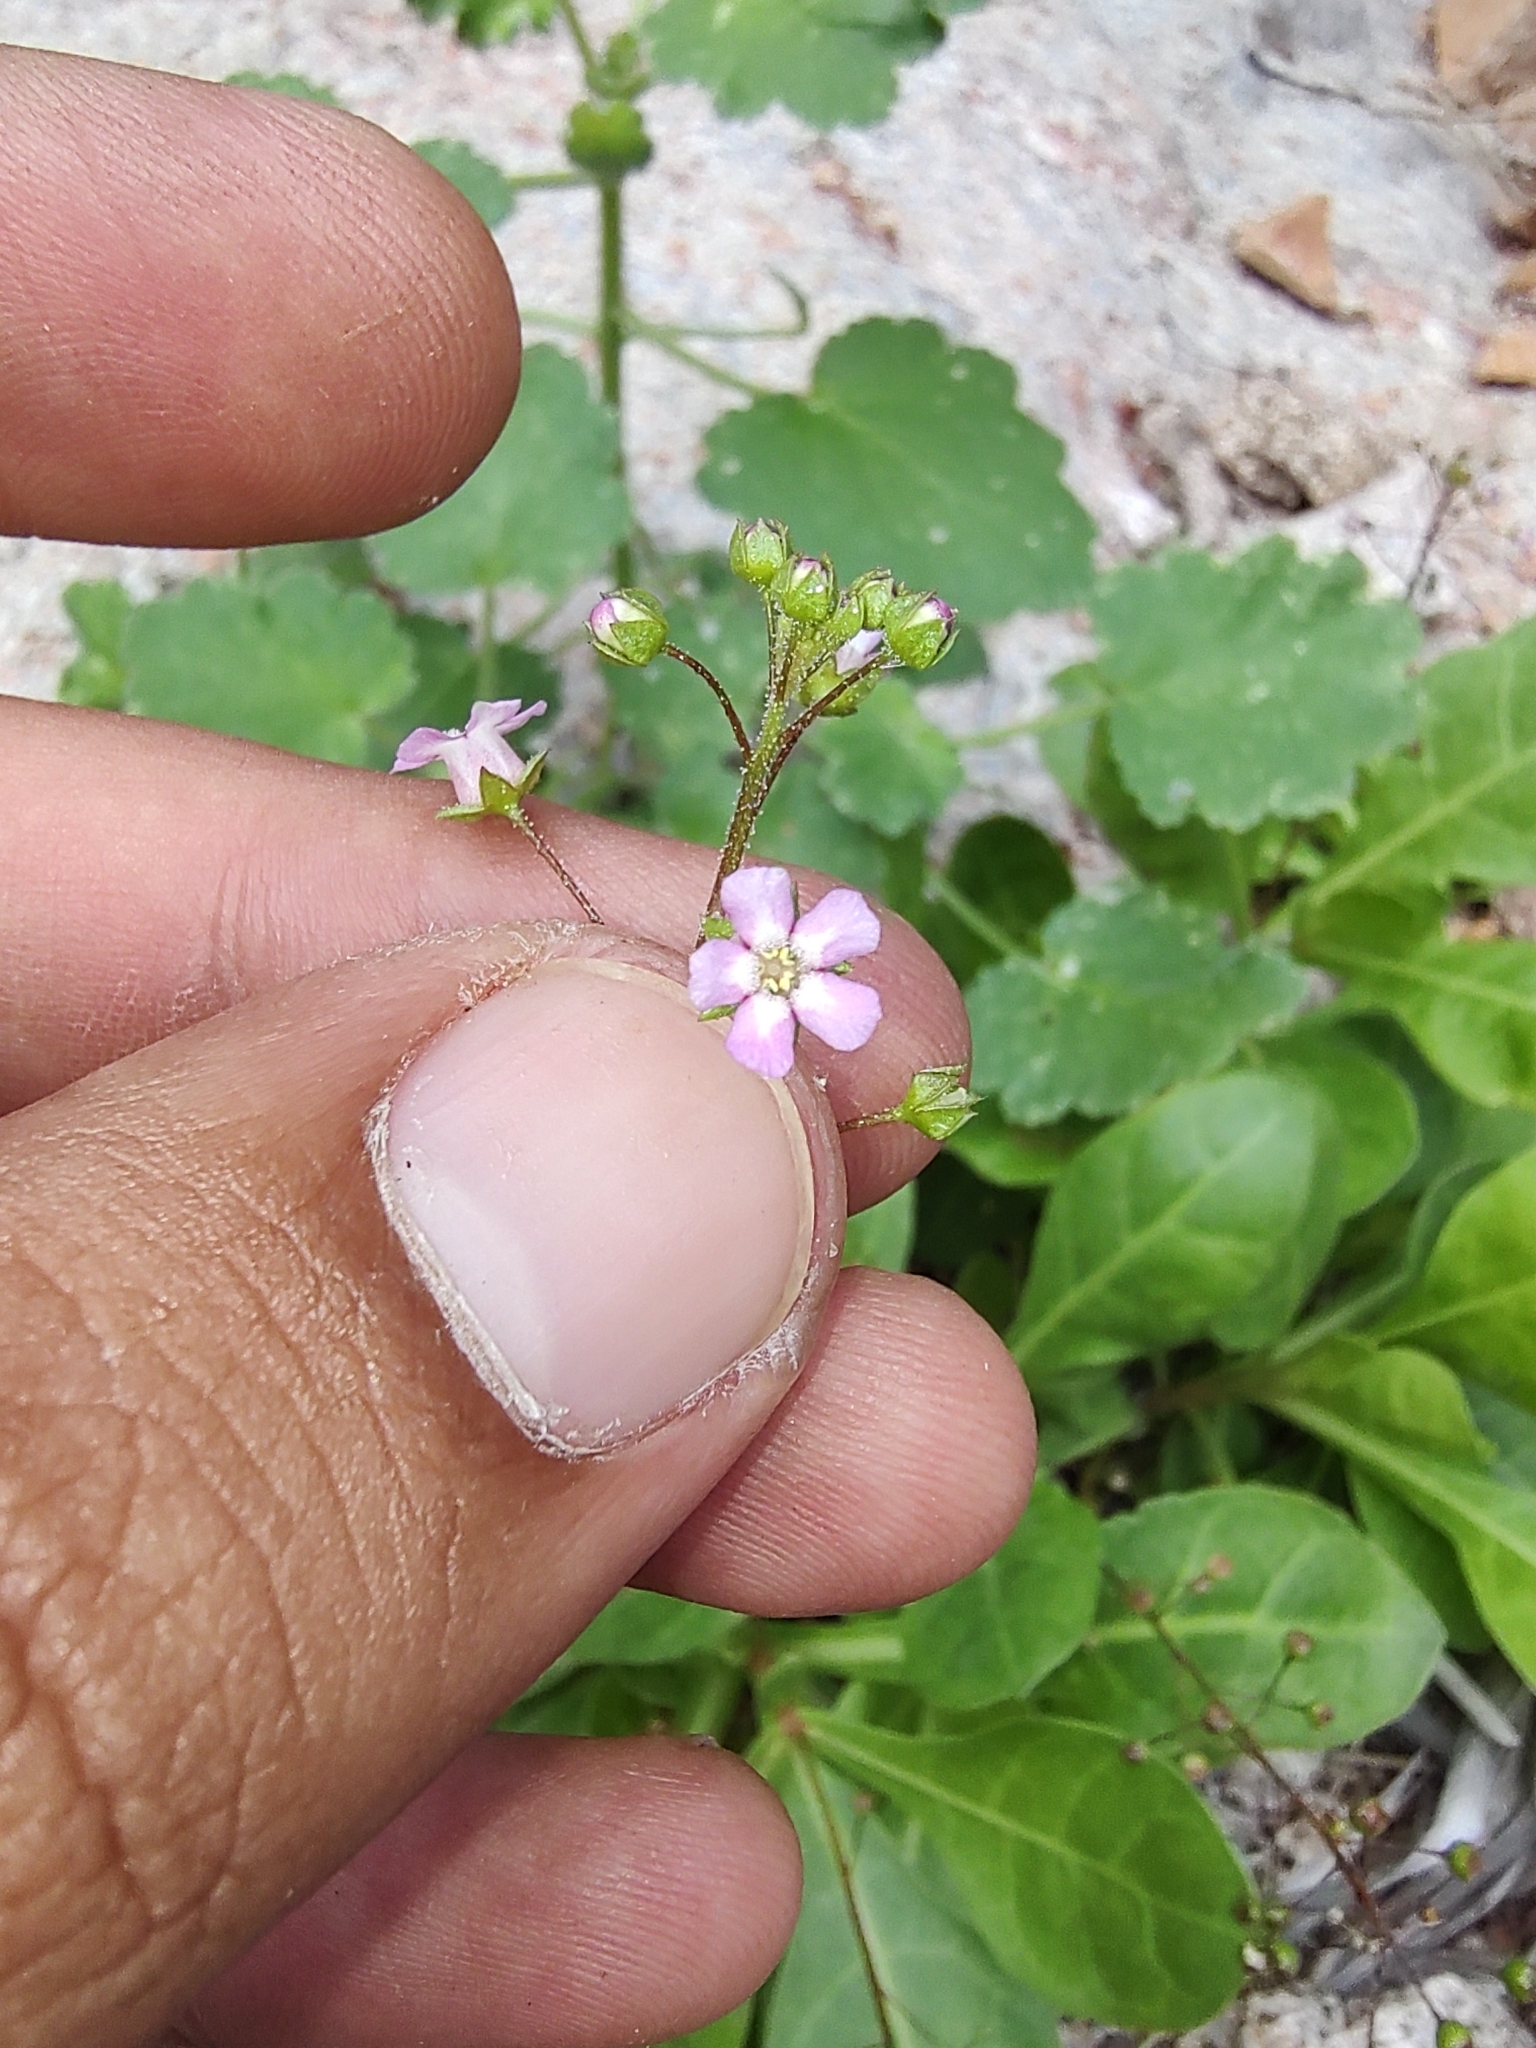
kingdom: Plantae
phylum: Tracheophyta
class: Magnoliopsida
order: Ericales
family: Primulaceae
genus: Samolus
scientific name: Samolus ebracteatus
